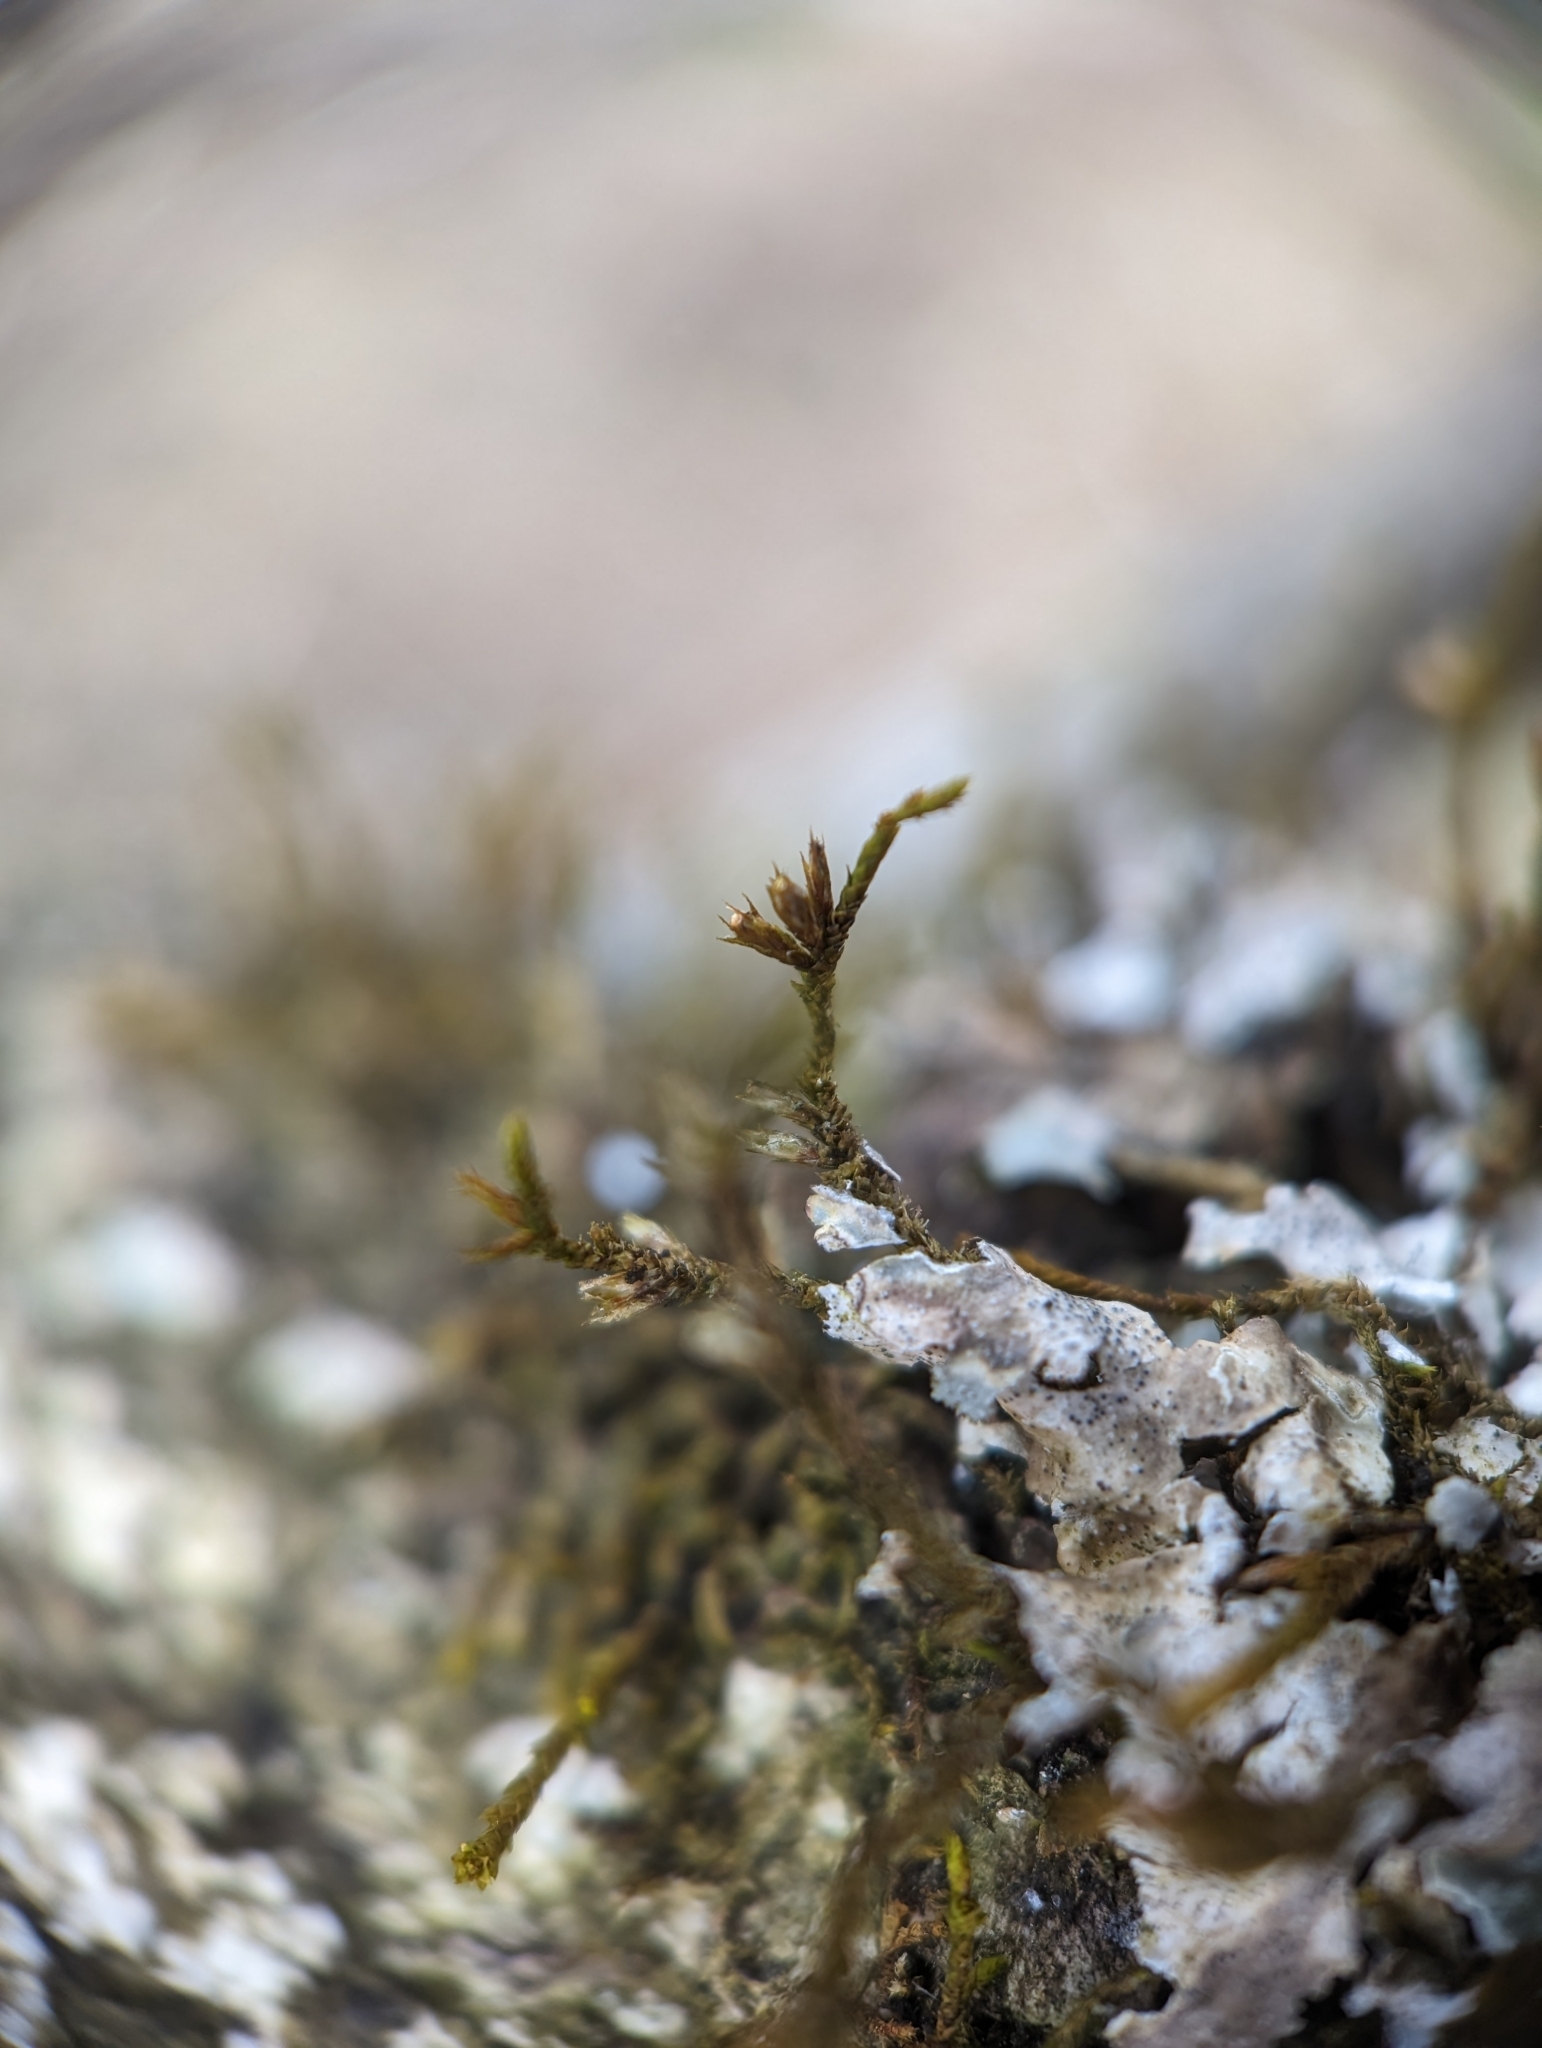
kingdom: Plantae
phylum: Bryophyta
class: Bryopsida
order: Hypnales
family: Cryphaeaceae
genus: Cryphaea
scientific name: Cryphaea glomerata
